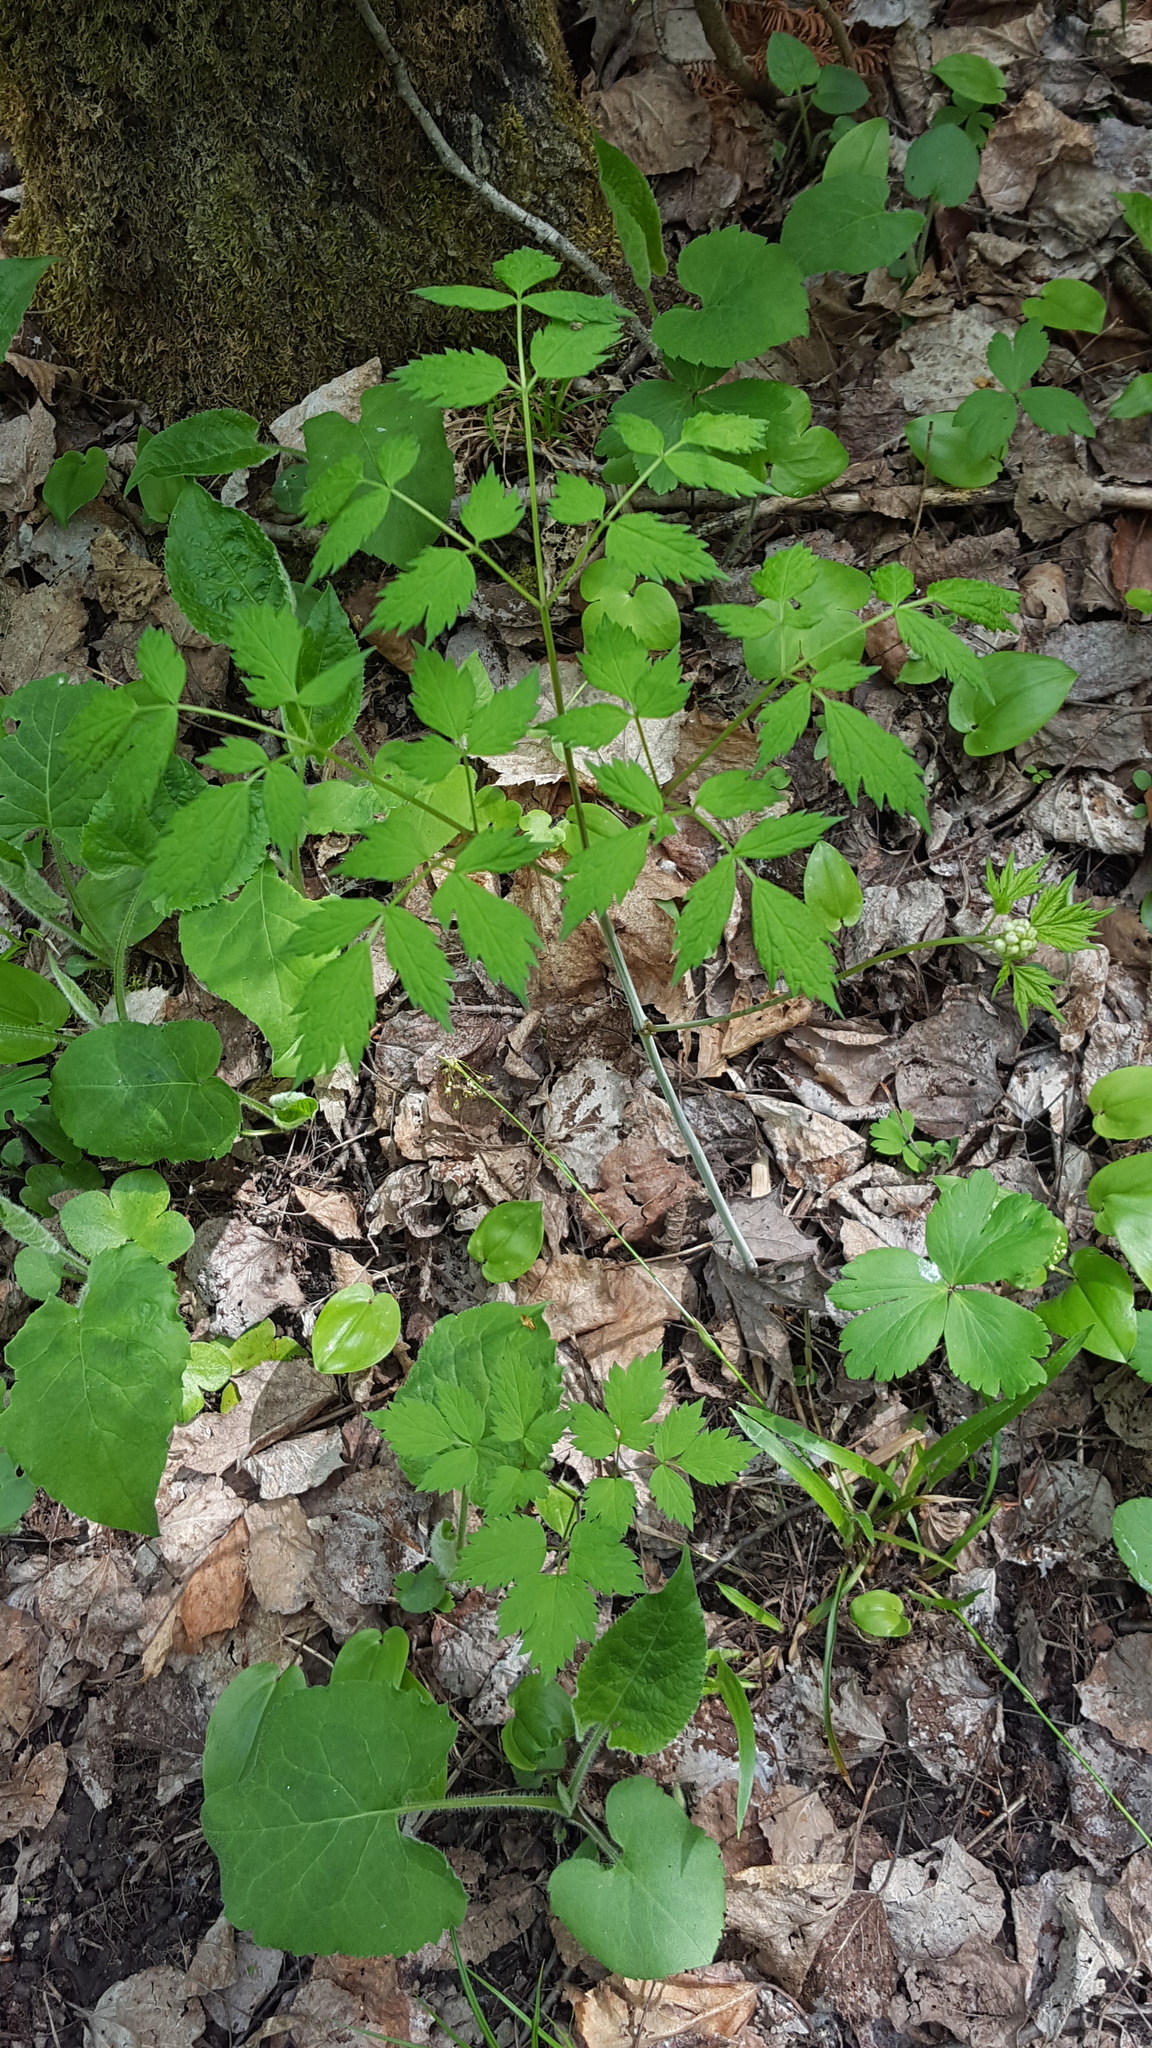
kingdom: Plantae
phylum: Tracheophyta
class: Magnoliopsida
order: Ranunculales
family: Ranunculaceae
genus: Actaea
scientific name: Actaea rubra
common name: Red baneberry
